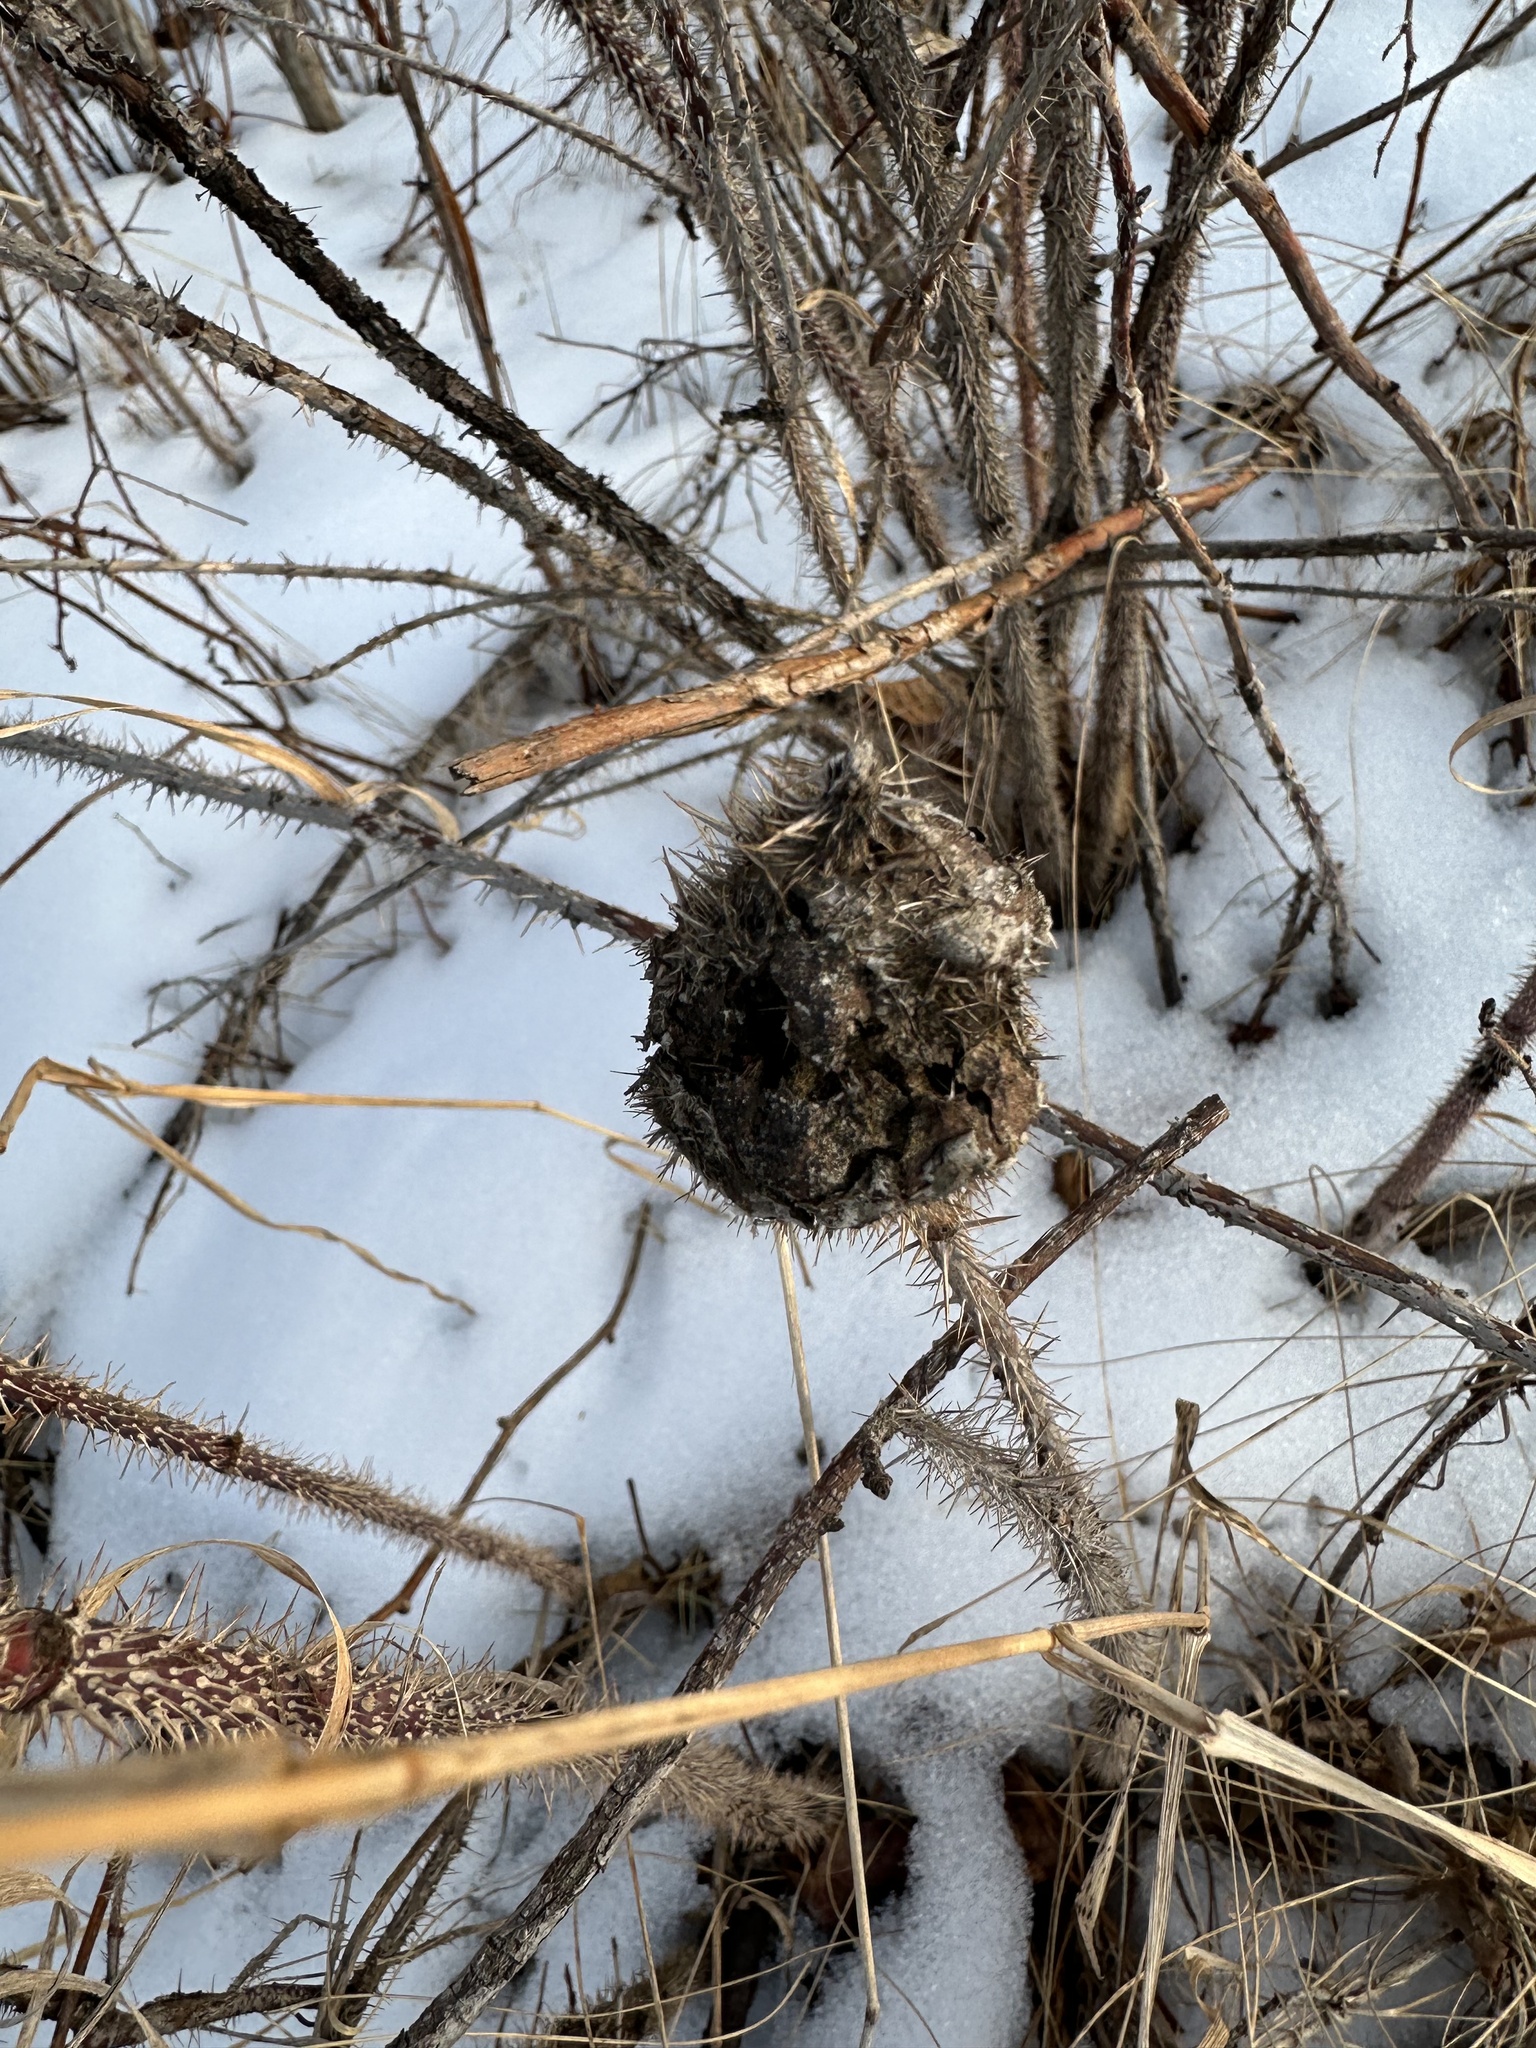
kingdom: Animalia
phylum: Arthropoda
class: Insecta
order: Hymenoptera
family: Cynipidae
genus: Diplolepis
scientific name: Diplolepis spinosa
